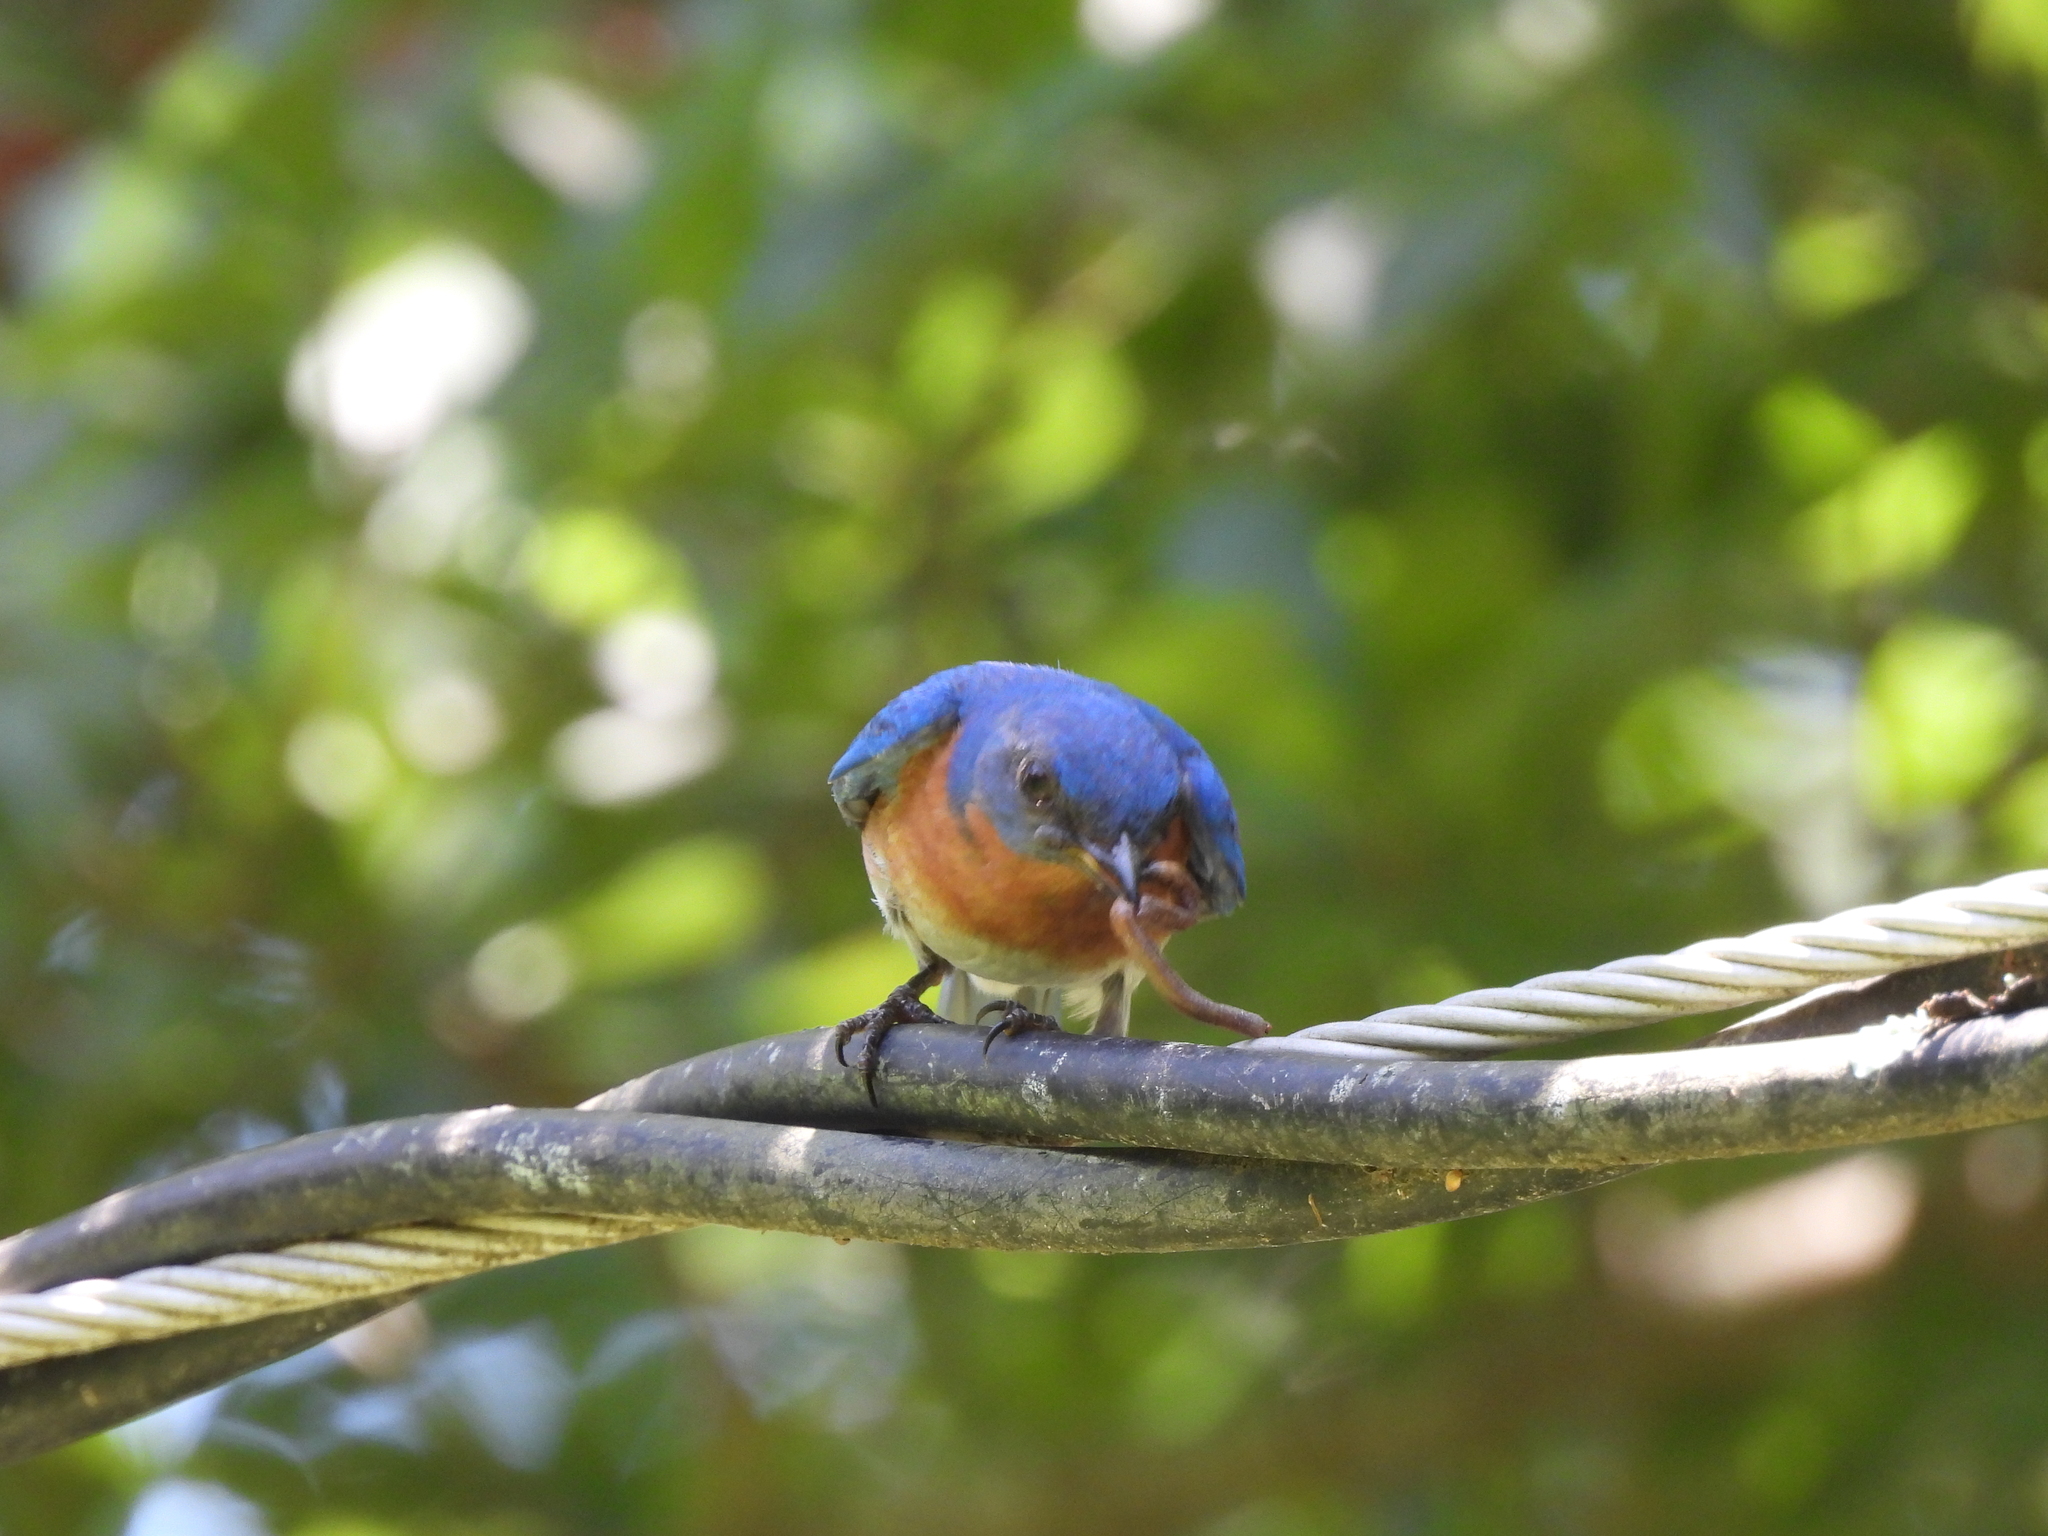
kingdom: Animalia
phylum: Chordata
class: Aves
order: Passeriformes
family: Turdidae
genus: Sialia
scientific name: Sialia sialis
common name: Eastern bluebird
